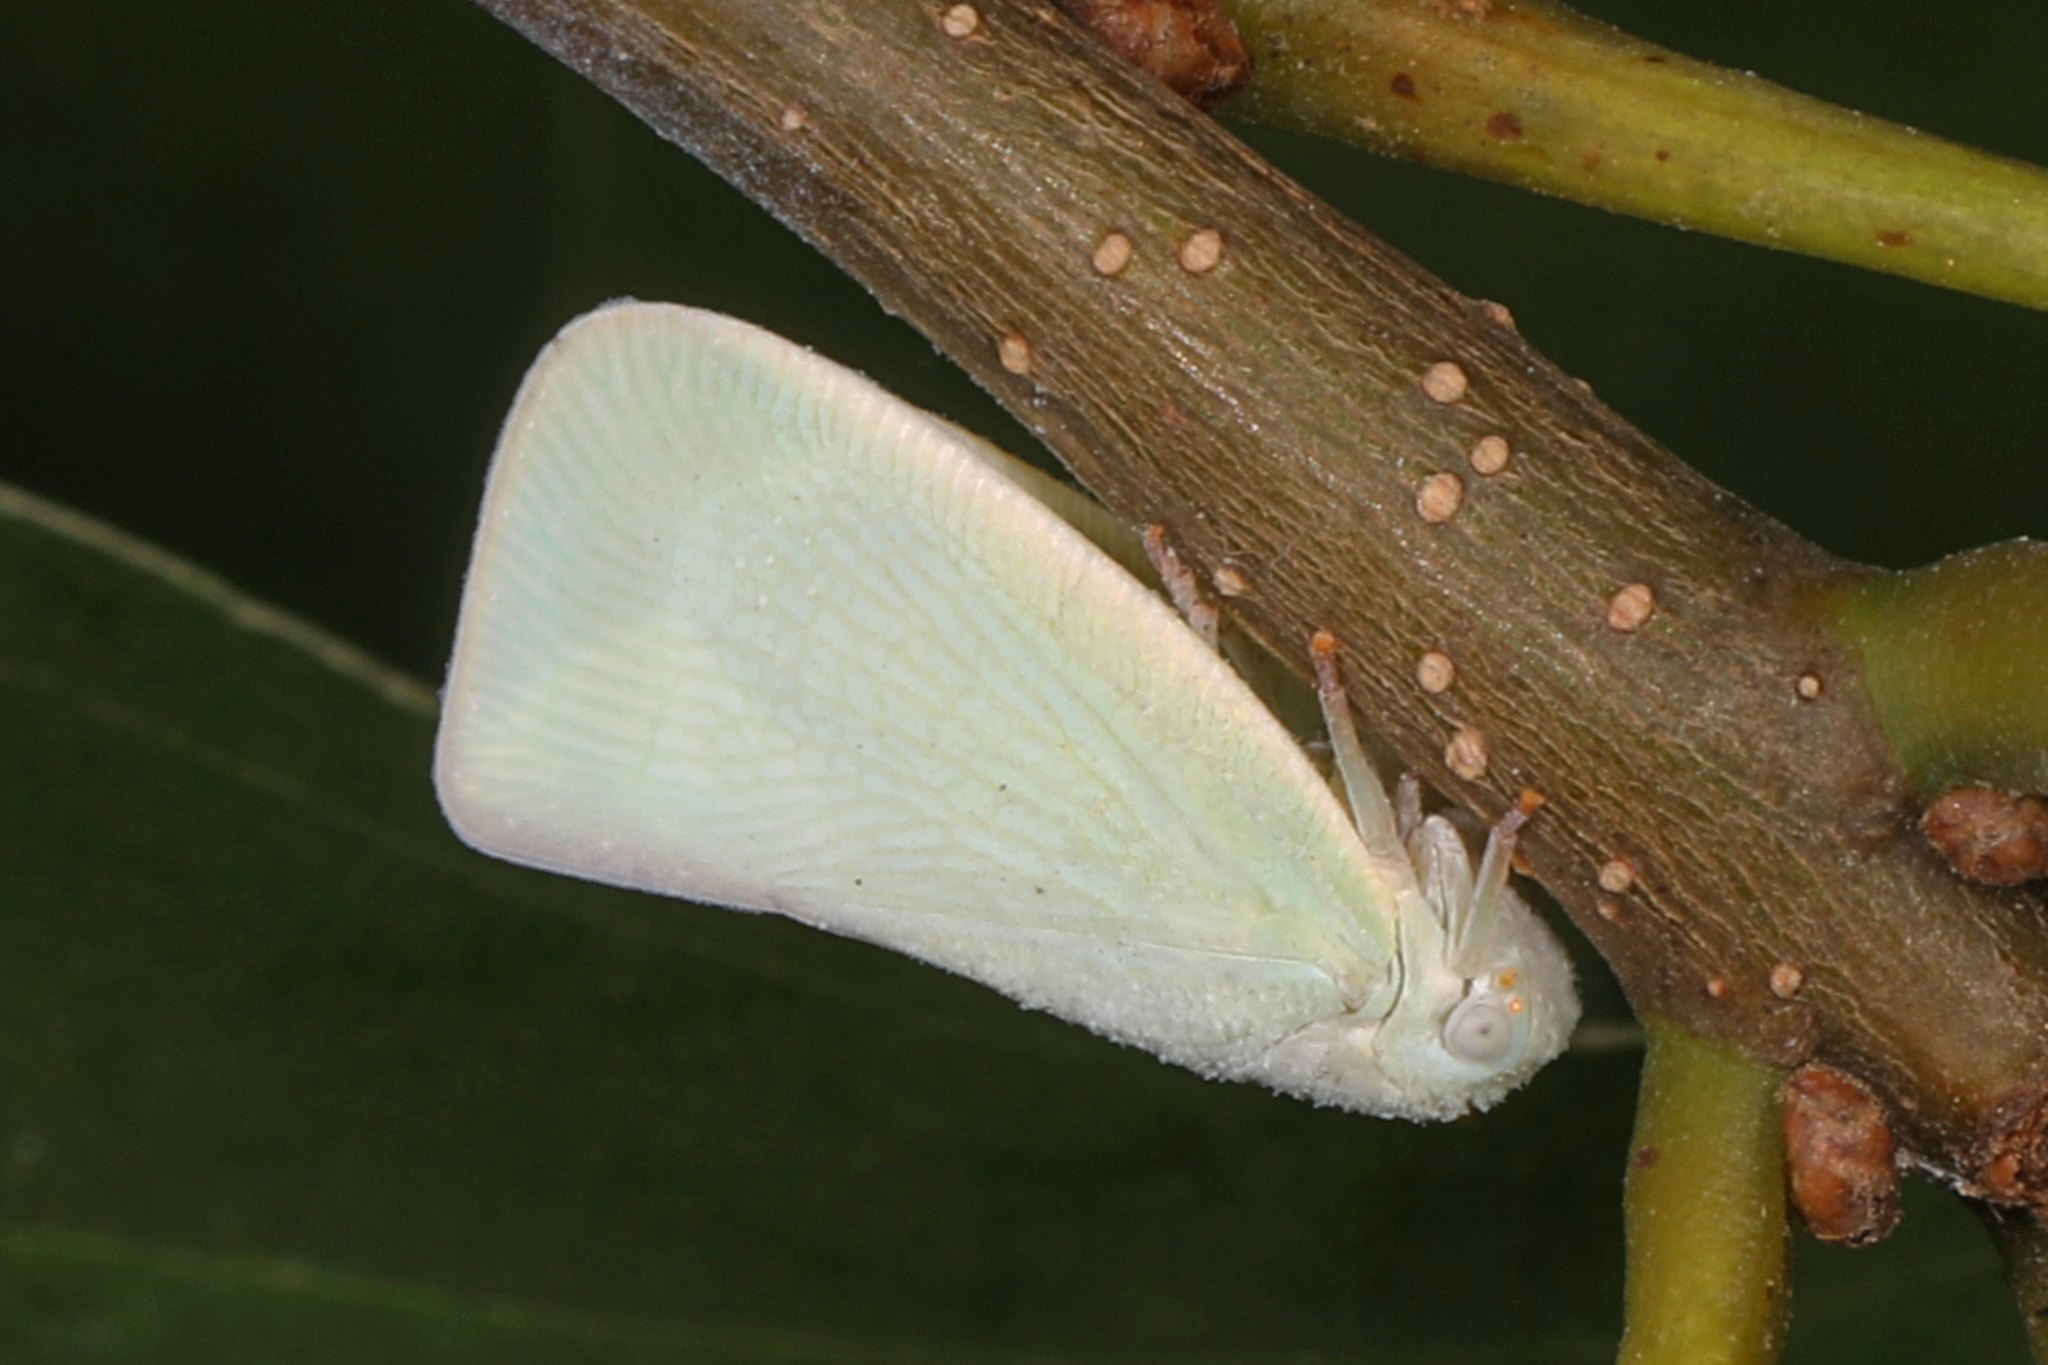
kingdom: Animalia
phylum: Arthropoda
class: Insecta
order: Hemiptera
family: Flatidae
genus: Flatormenis
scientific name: Flatormenis proxima
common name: Northern flatid planthopper
